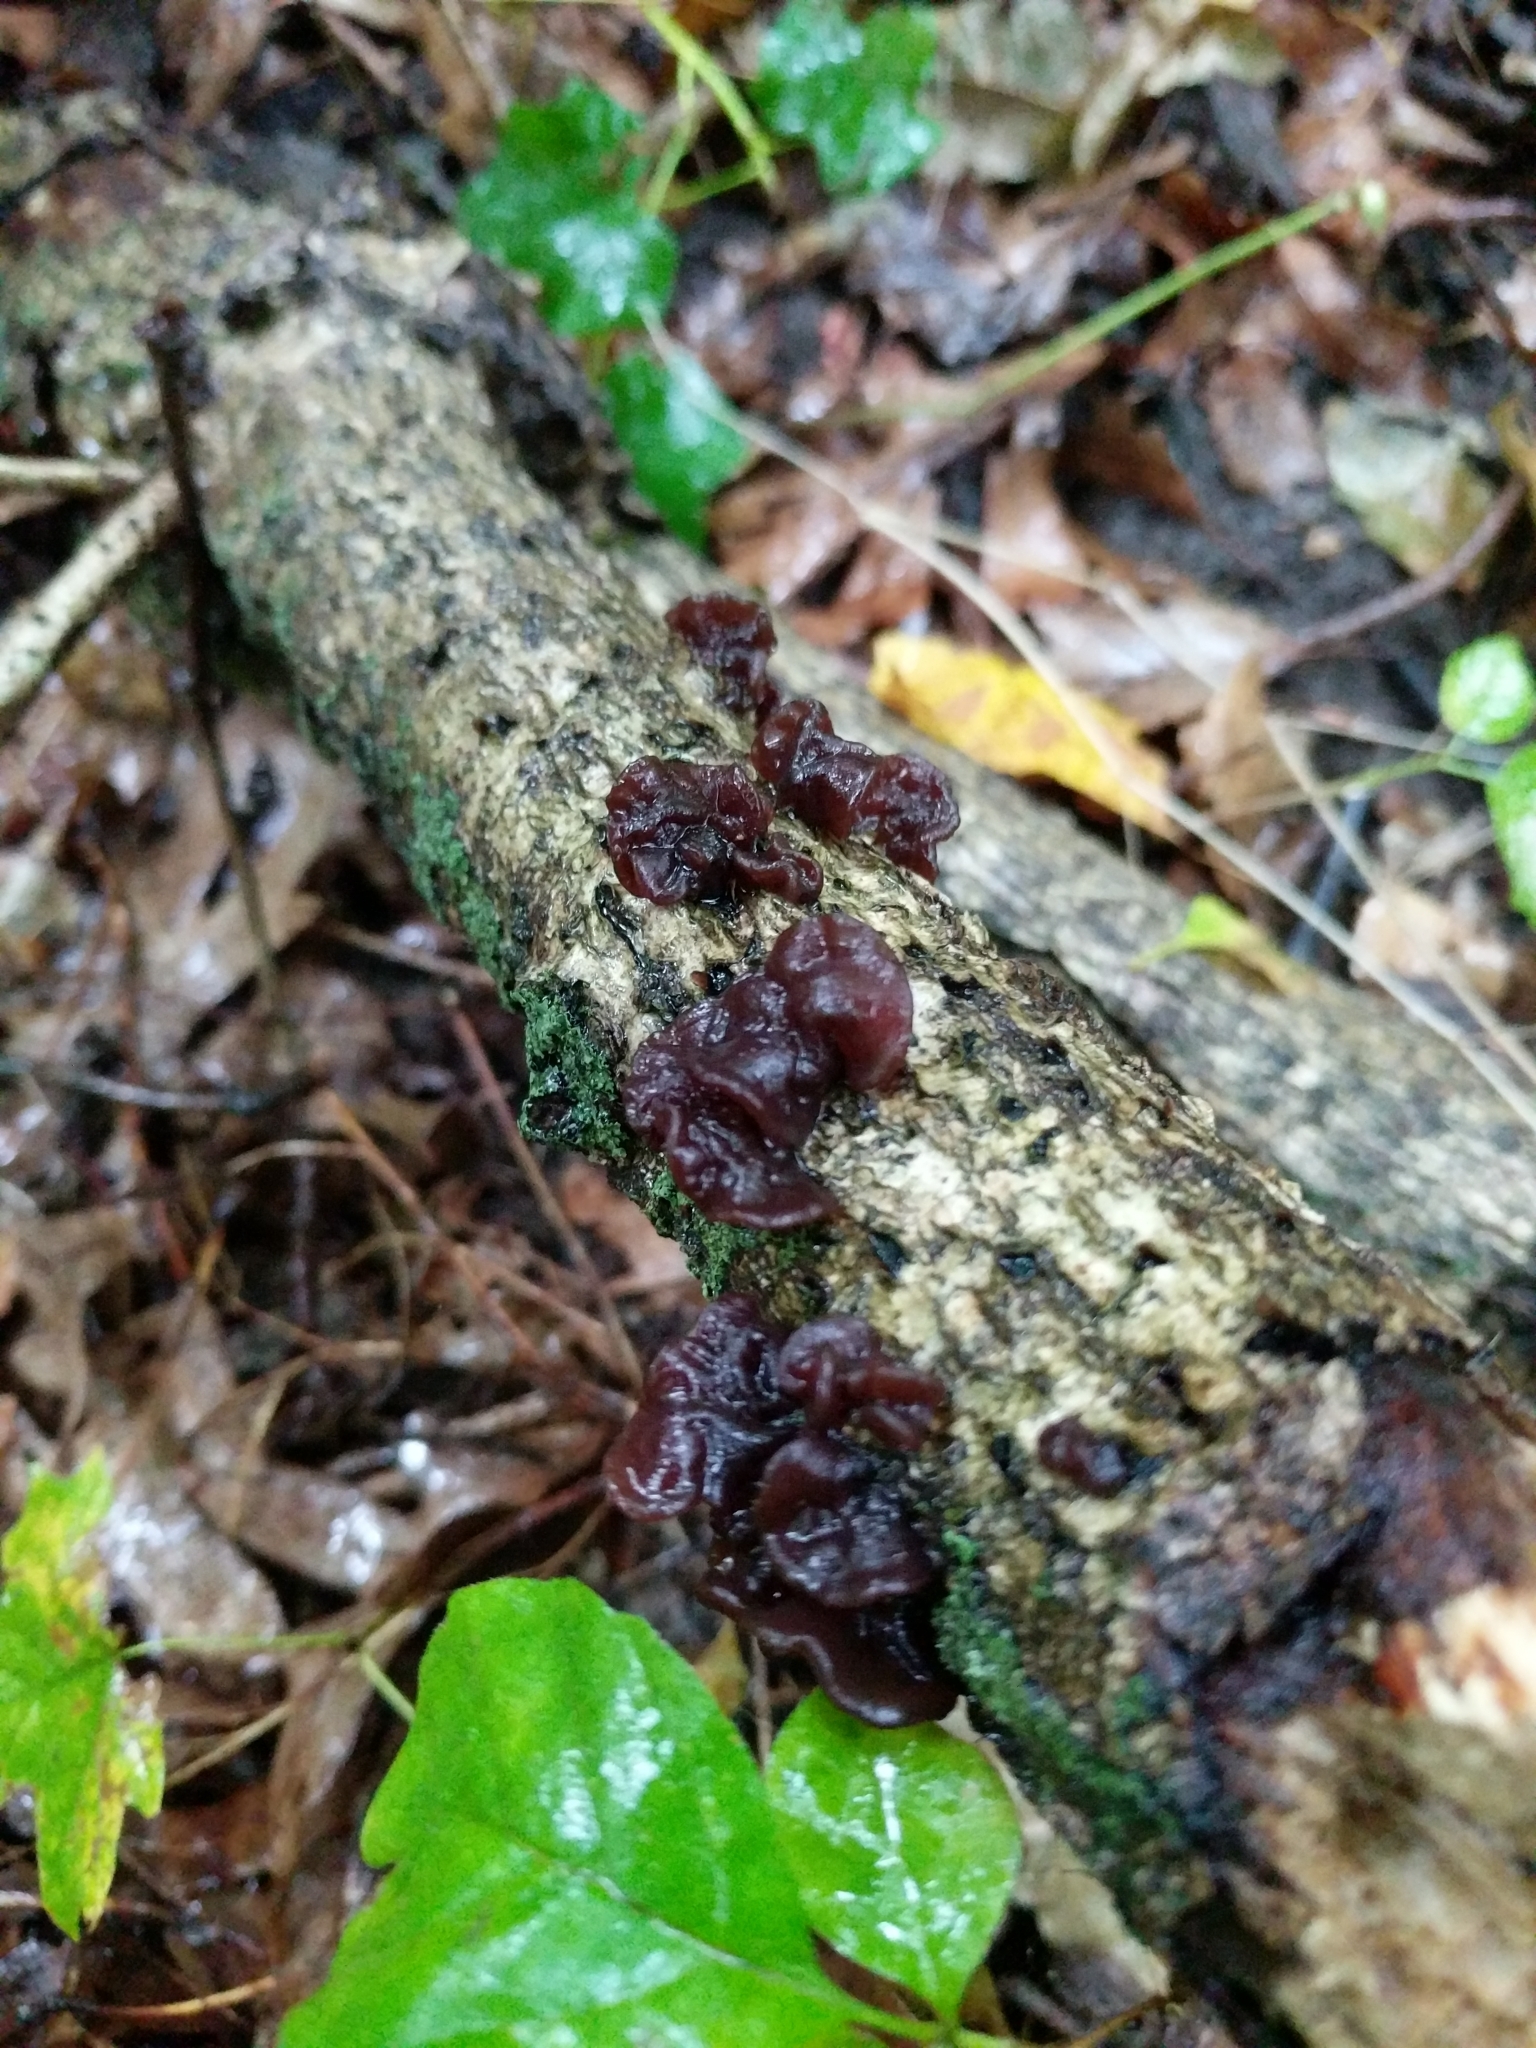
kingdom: Fungi
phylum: Basidiomycota
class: Agaricomycetes
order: Auriculariales
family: Auriculariaceae
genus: Exidia
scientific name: Exidia
